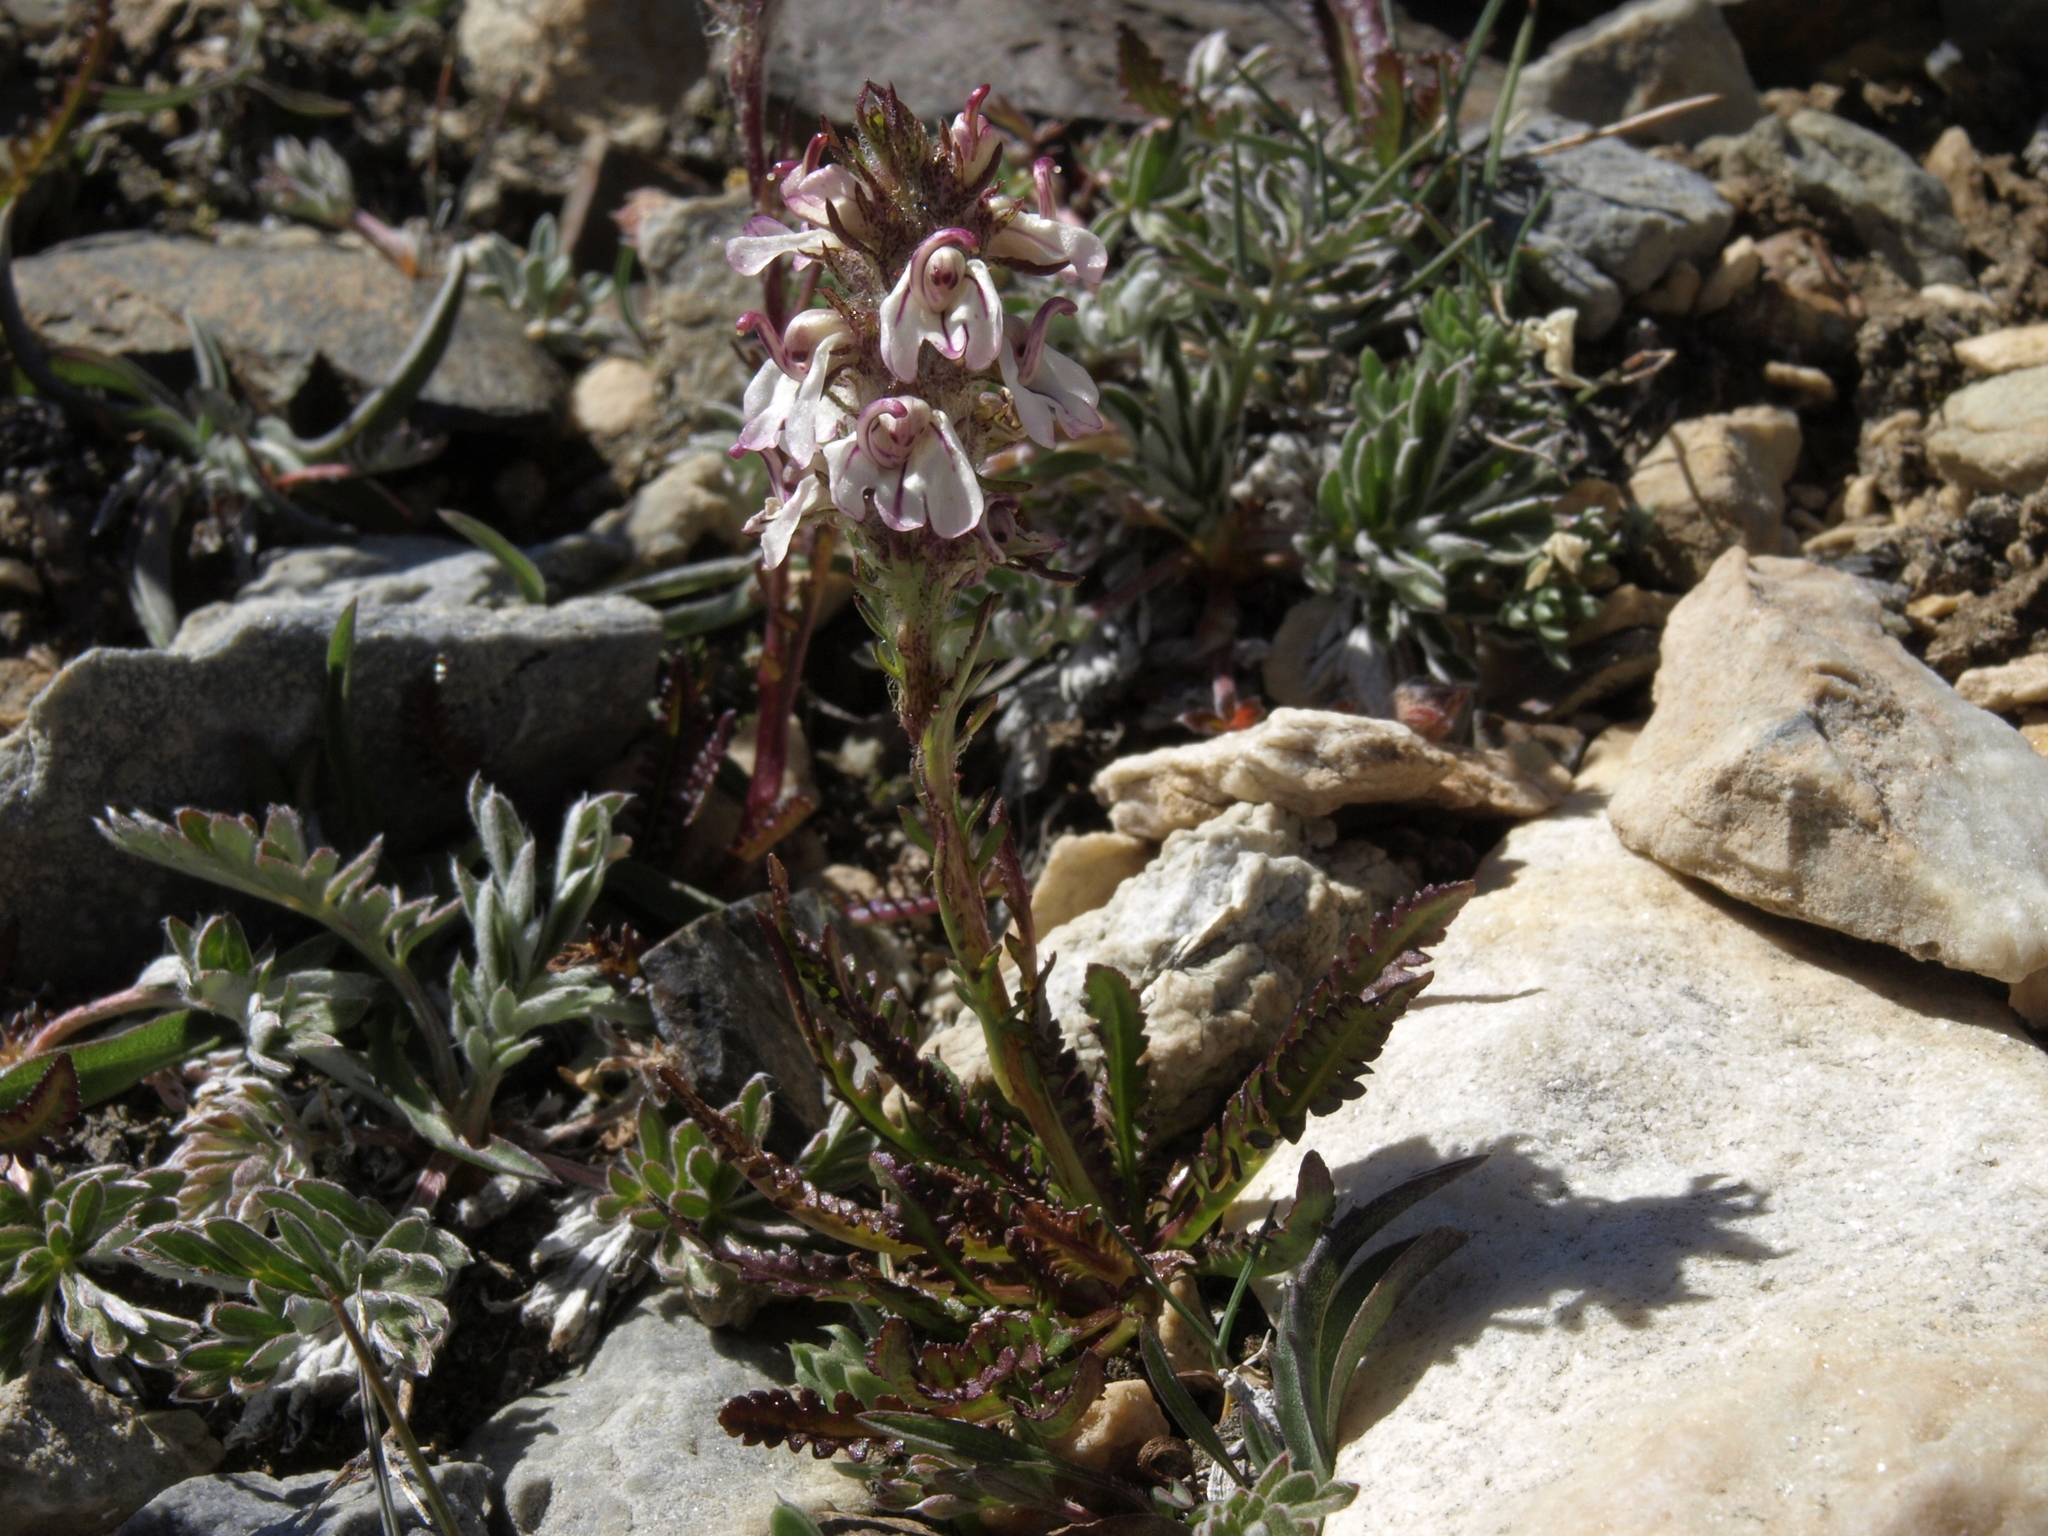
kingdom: Plantae
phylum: Tracheophyta
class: Magnoliopsida
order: Lamiales
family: Orobanchaceae
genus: Pedicularis
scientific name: Pedicularis attollens
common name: Slender pedicularis
